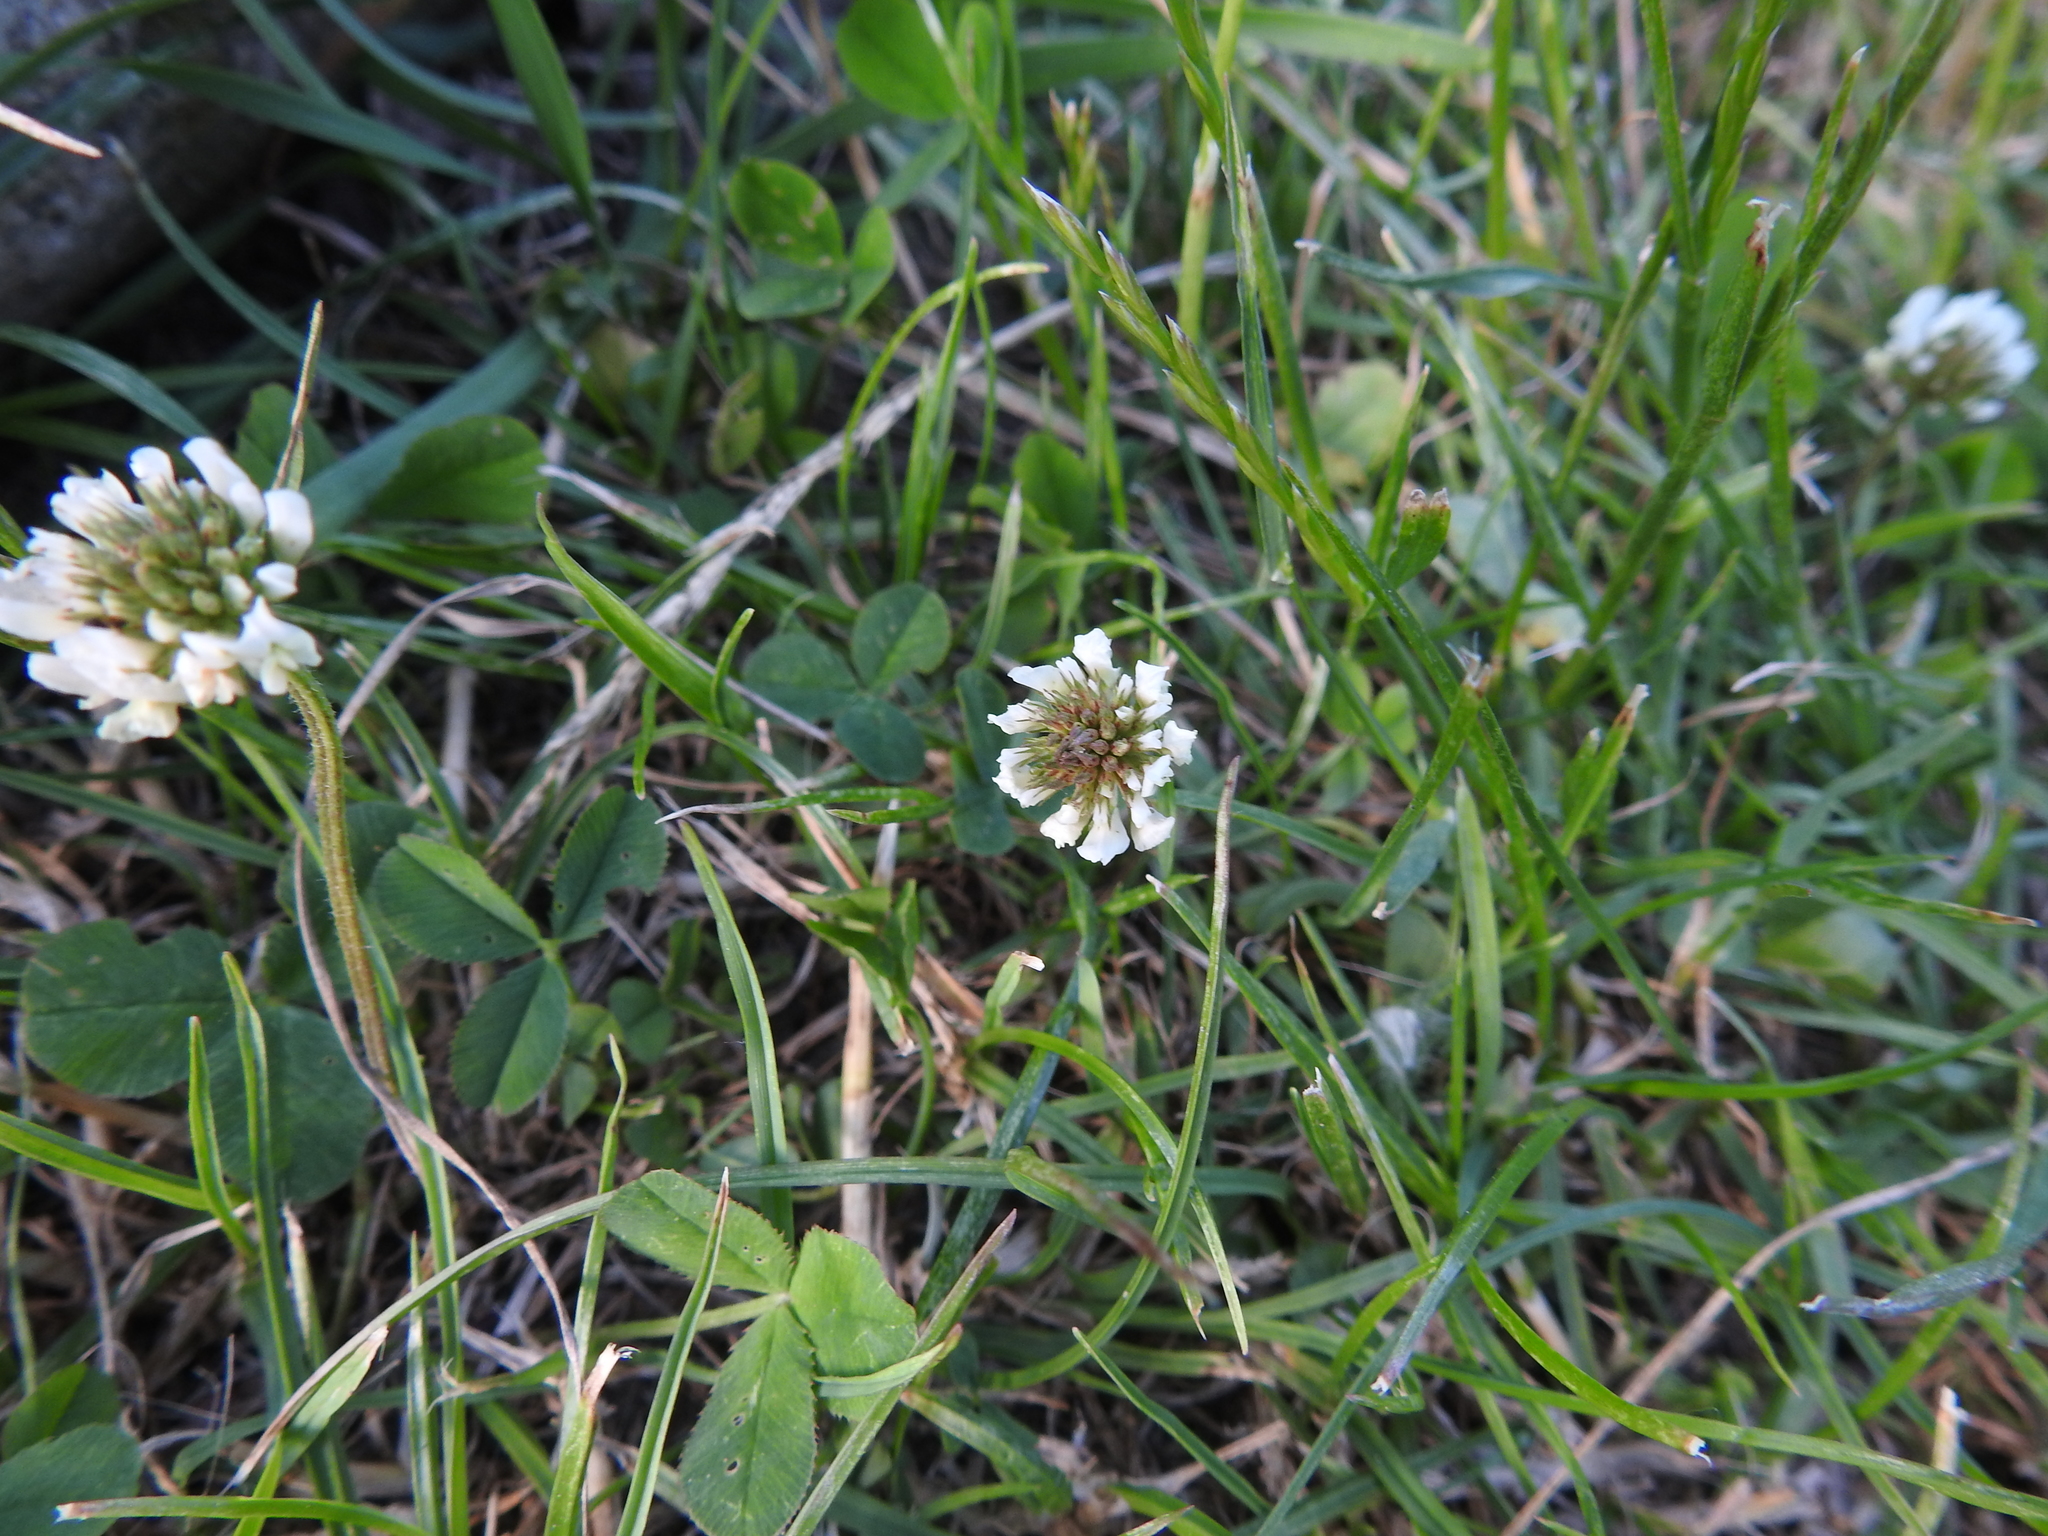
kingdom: Plantae
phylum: Tracheophyta
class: Magnoliopsida
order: Fabales
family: Fabaceae
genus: Trifolium
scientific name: Trifolium repens
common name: White clover
